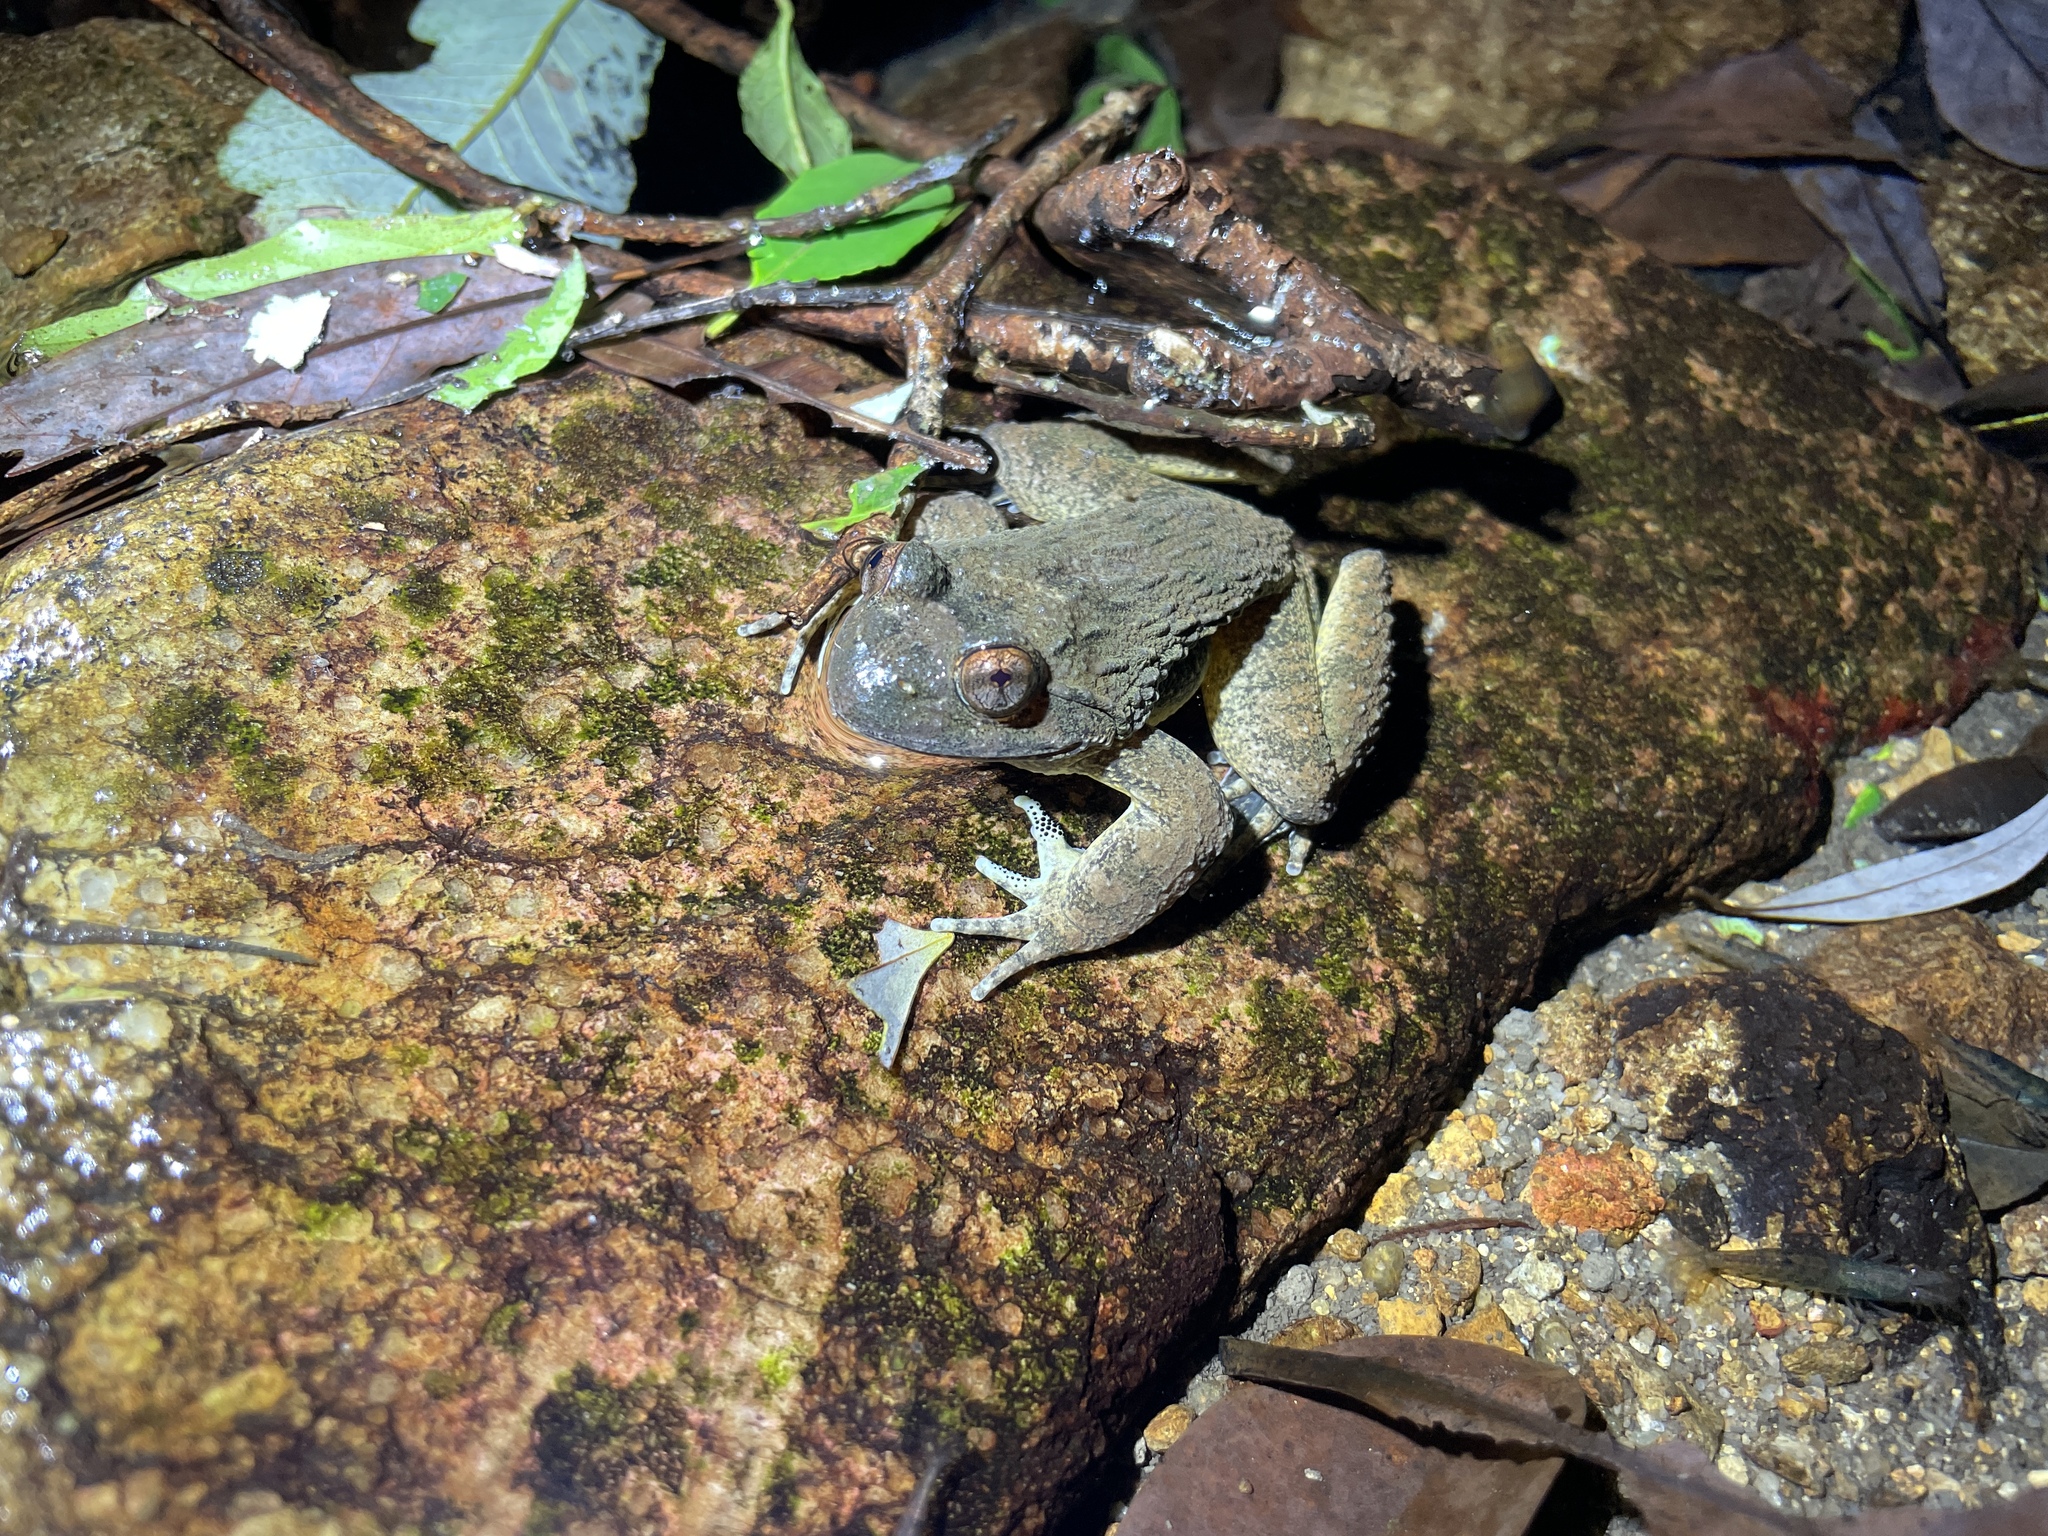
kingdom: Animalia
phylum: Chordata
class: Amphibia
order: Anura
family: Dicroglossidae
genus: Quasipaa
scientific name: Quasipaa exilispinosa
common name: Hong kong paa frog
